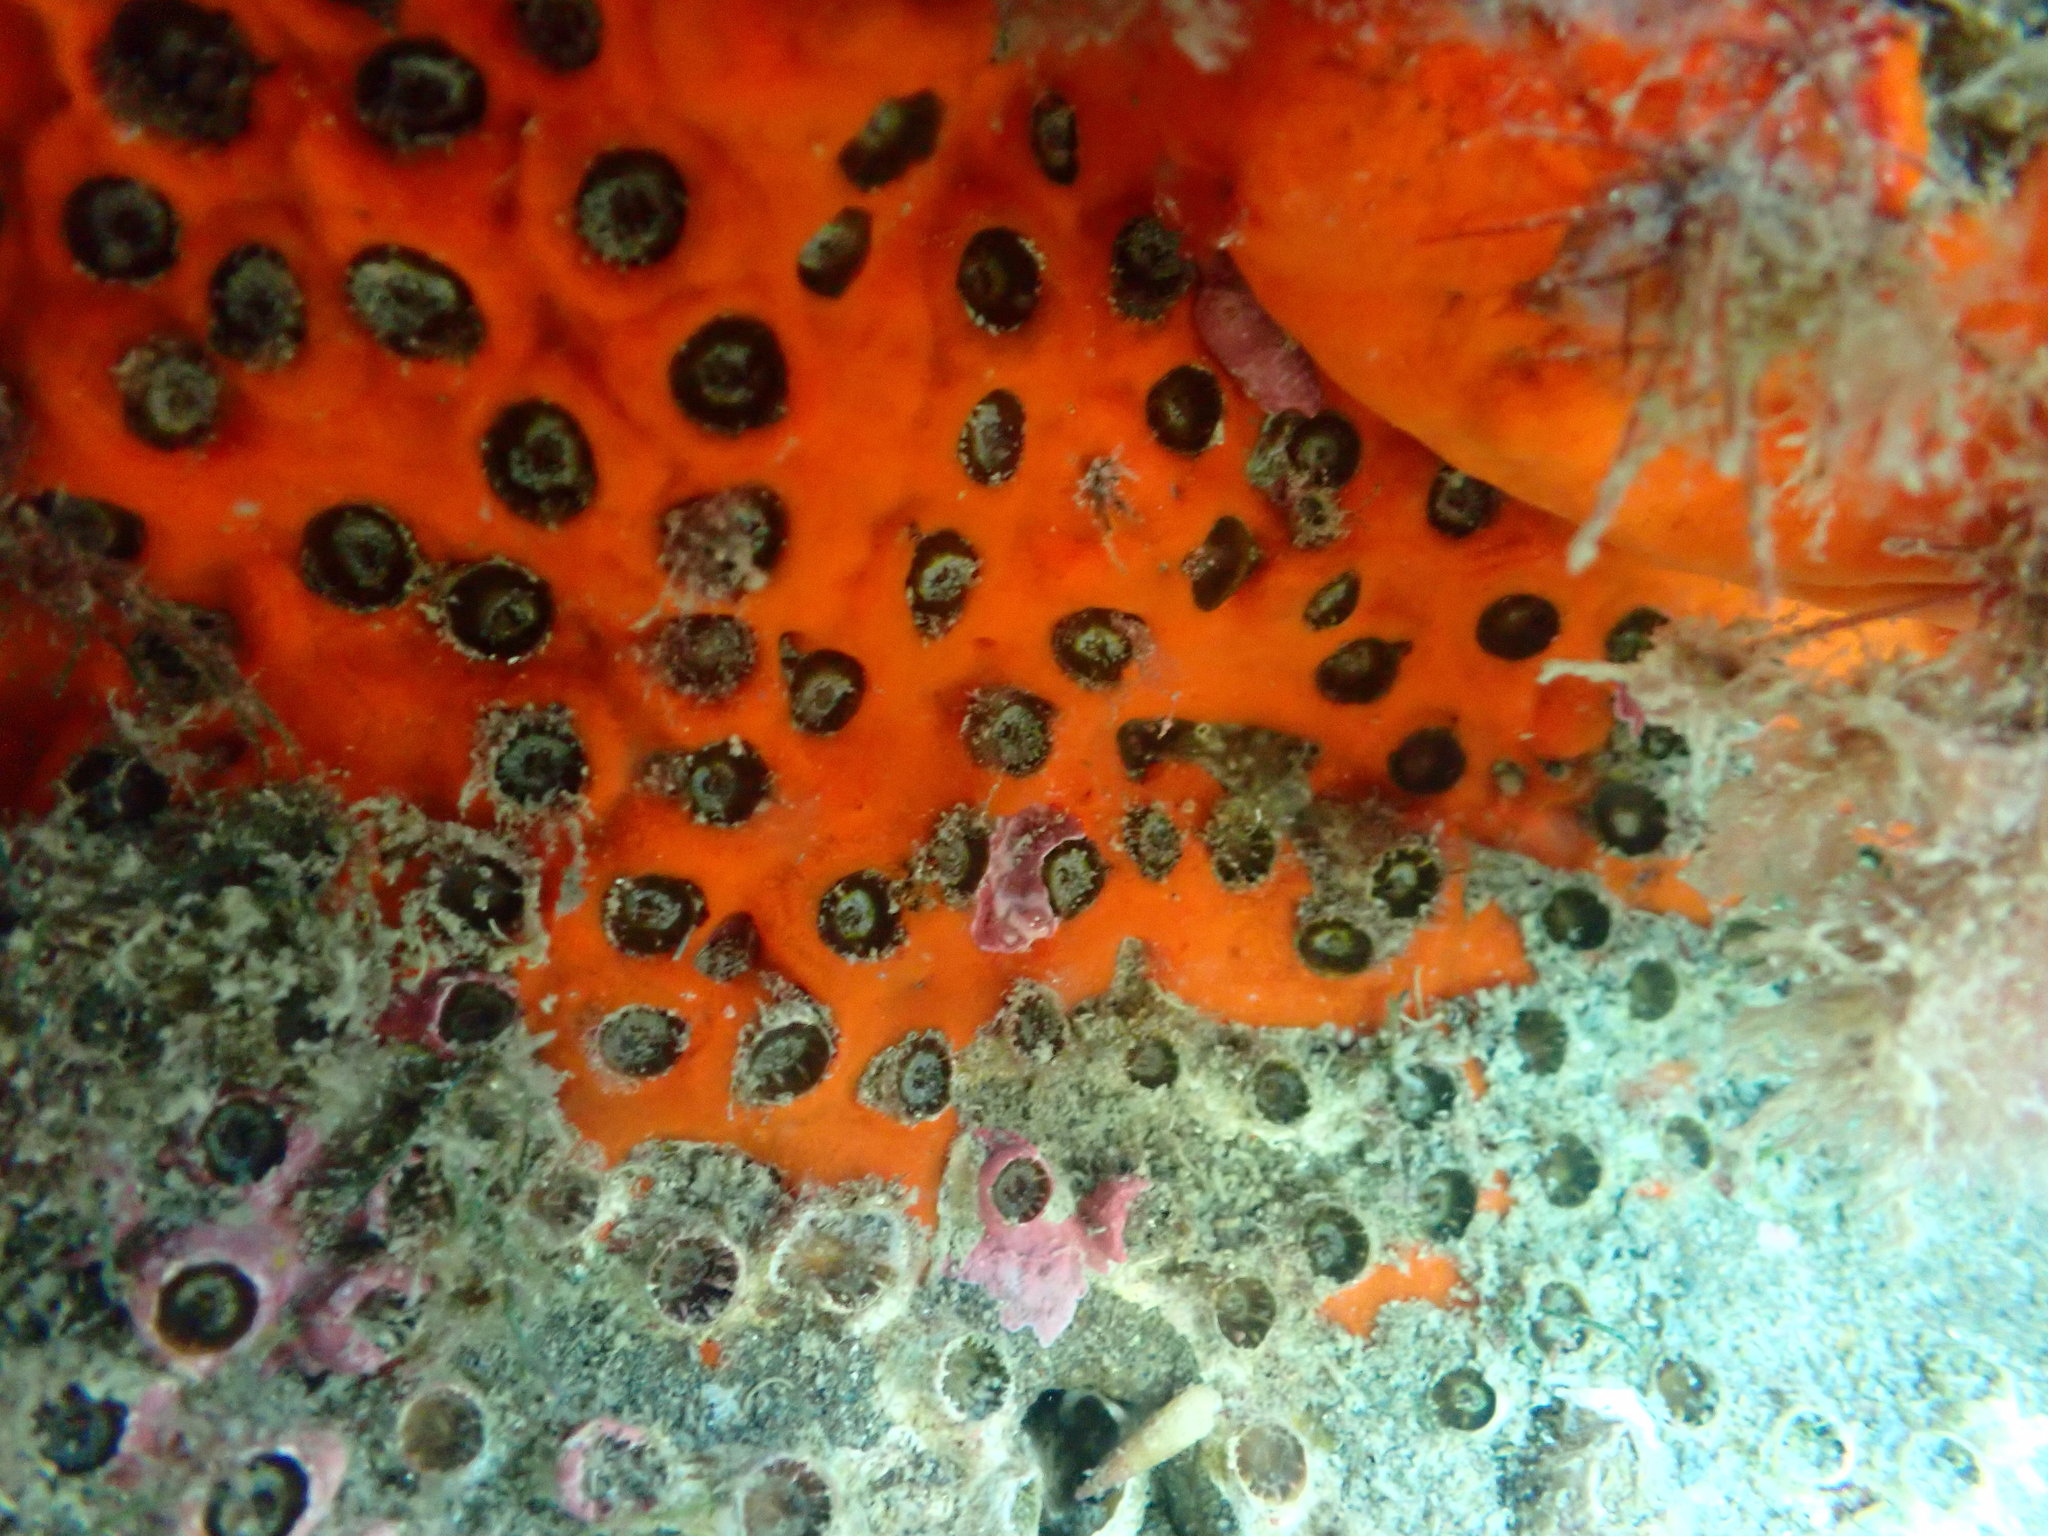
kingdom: Animalia
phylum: Cnidaria
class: Anthozoa
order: Scleractinia
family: Rhizangiidae
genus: Culicia
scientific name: Culicia rubeola
